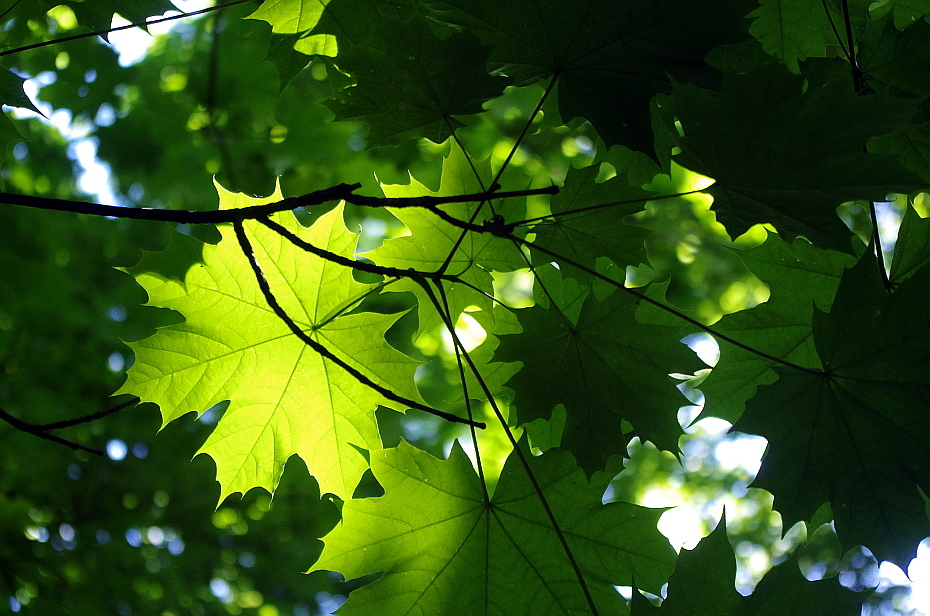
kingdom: Plantae
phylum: Tracheophyta
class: Magnoliopsida
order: Sapindales
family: Sapindaceae
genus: Acer
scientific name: Acer platanoides
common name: Norway maple
